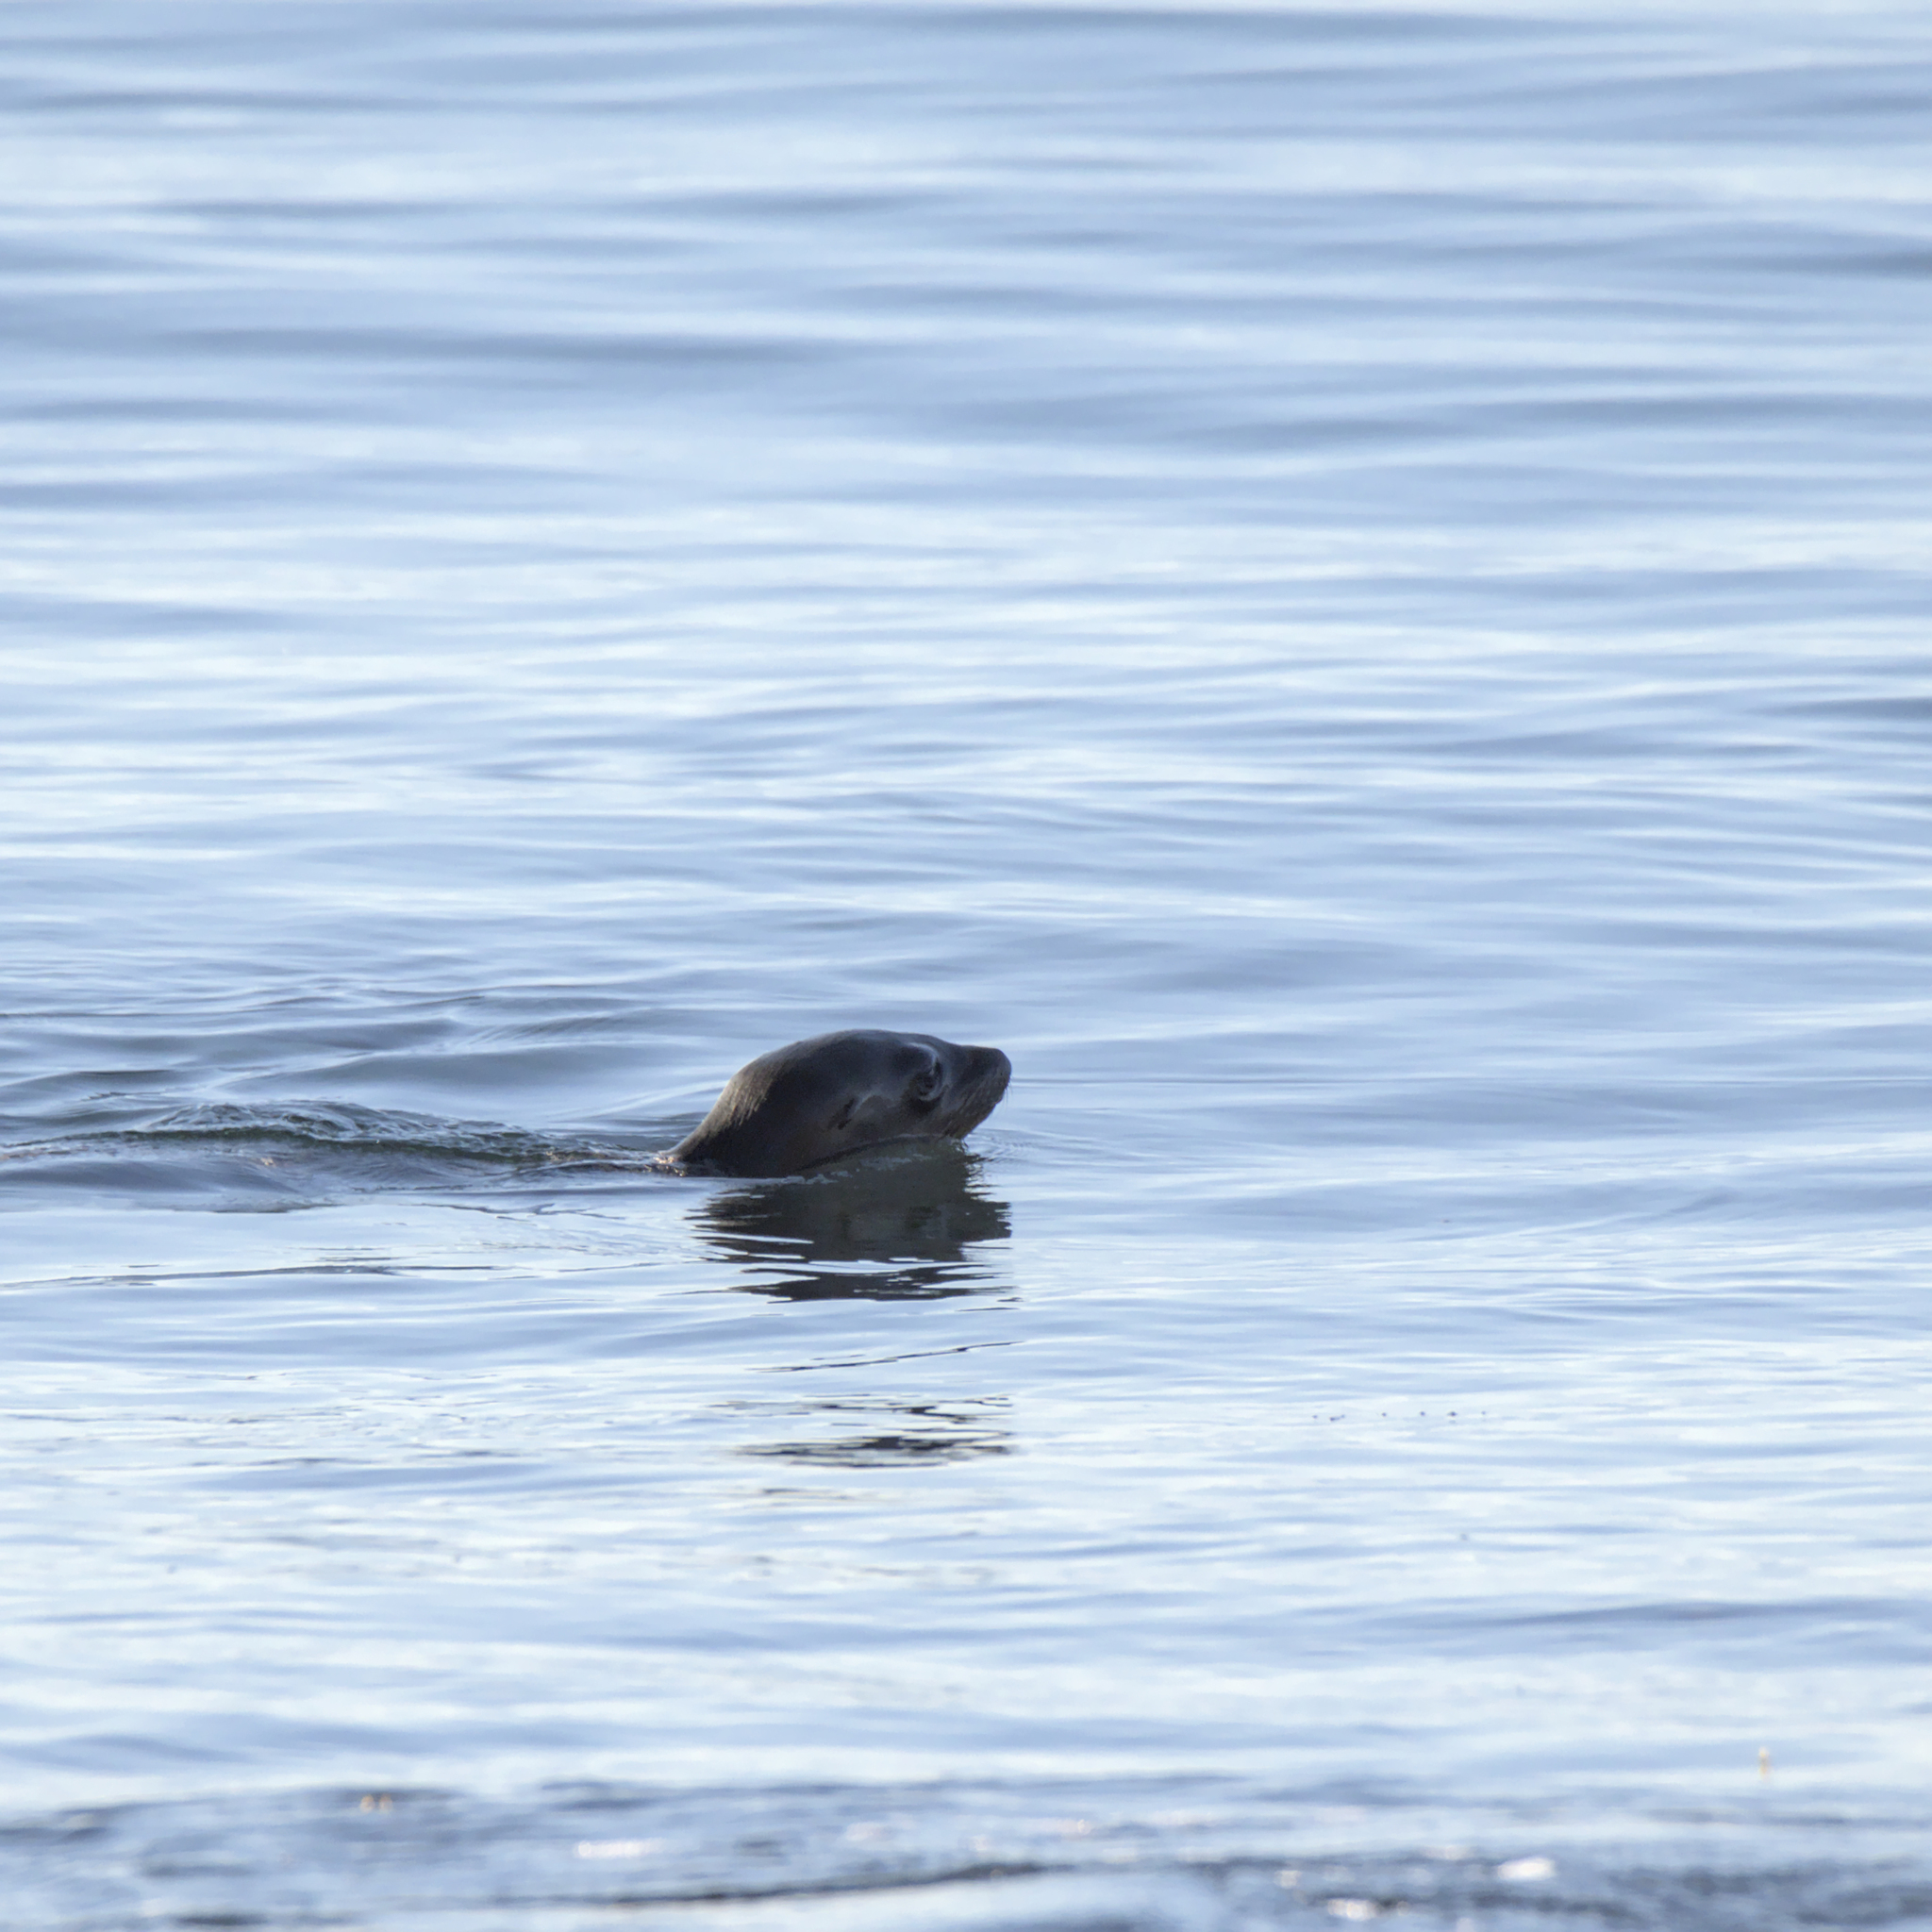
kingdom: Animalia
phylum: Chordata
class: Mammalia
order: Carnivora
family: Otariidae
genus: Zalophus
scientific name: Zalophus californianus
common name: California sea lion
